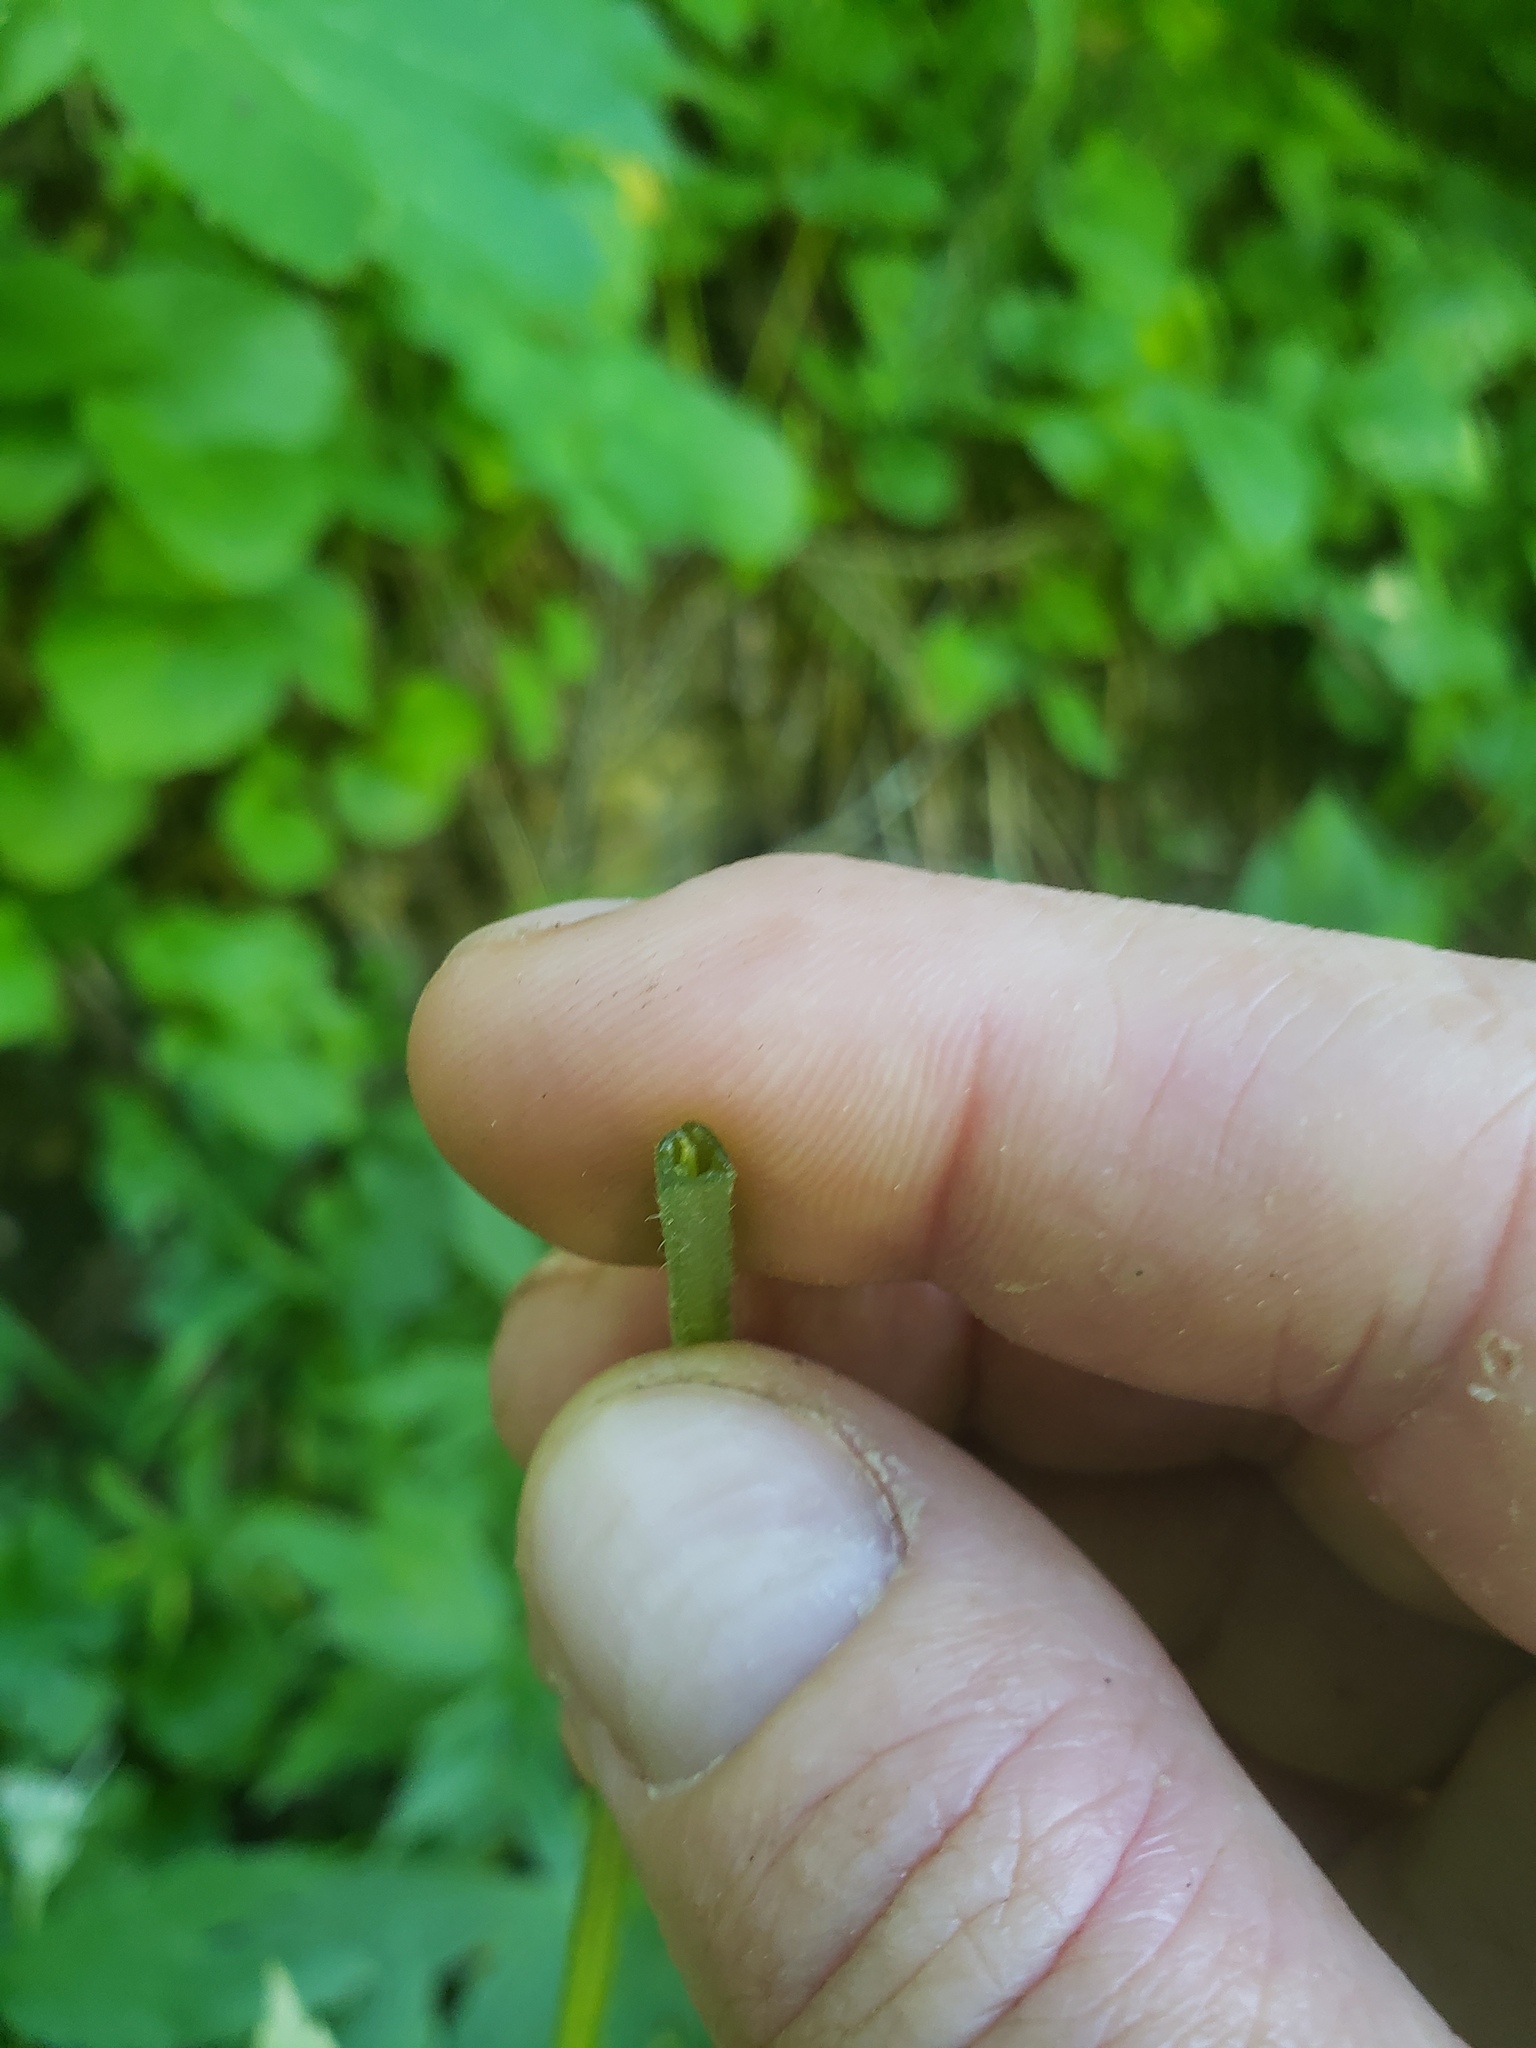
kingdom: Plantae
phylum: Tracheophyta
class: Magnoliopsida
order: Boraginales
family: Hydrophyllaceae
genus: Hydrophyllum
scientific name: Hydrophyllum fendleri
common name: Fendler's waterleaf
